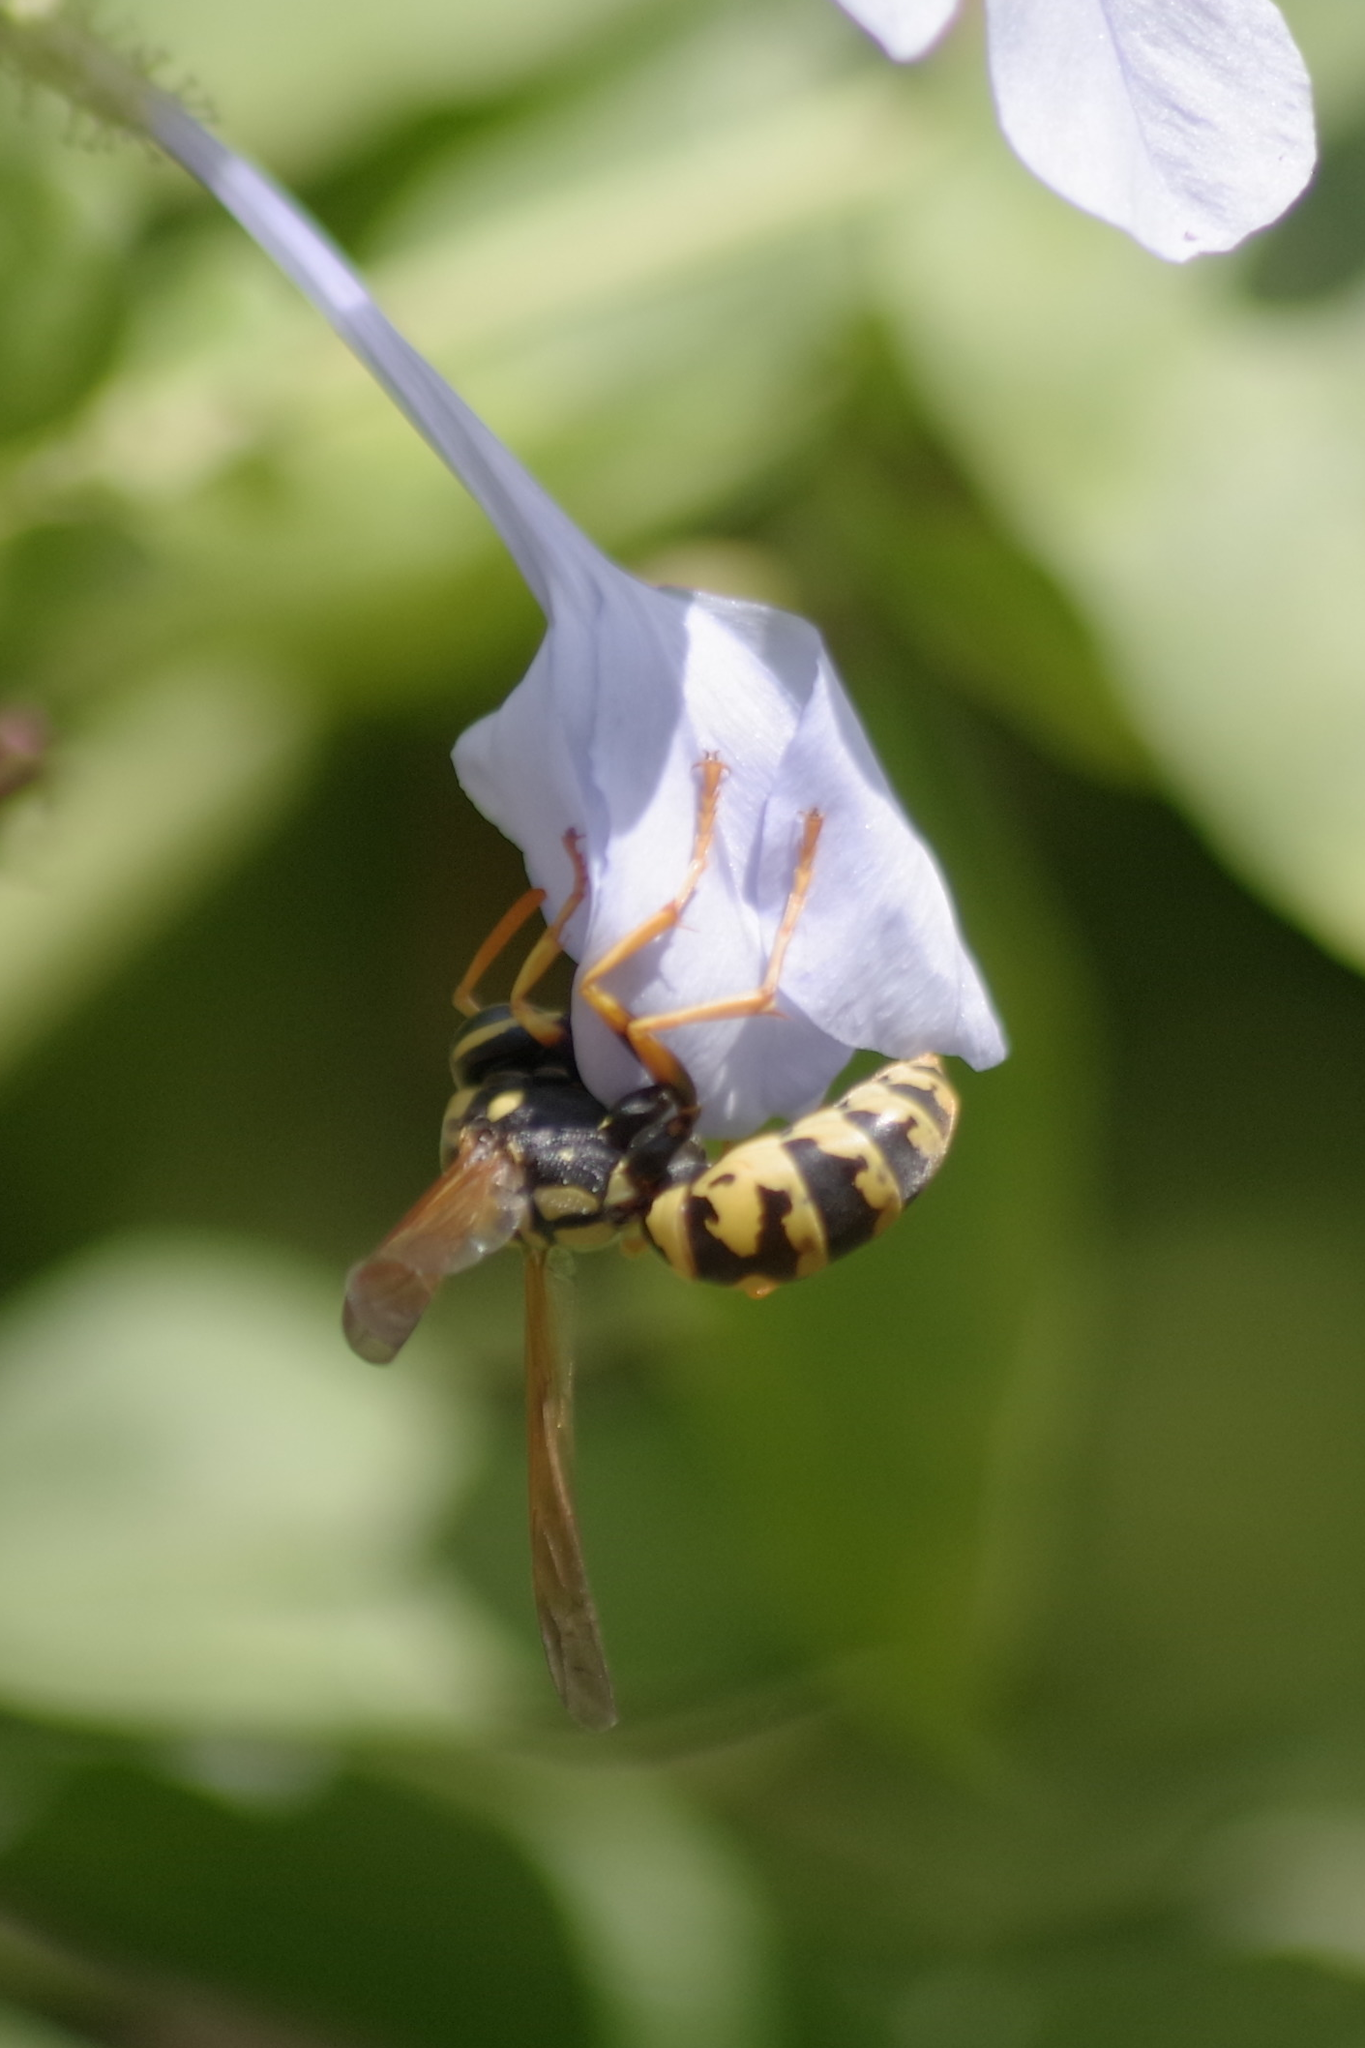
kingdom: Animalia
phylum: Arthropoda
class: Insecta
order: Hymenoptera
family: Eumenidae
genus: Polistes
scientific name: Polistes dominula
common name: Paper wasp
